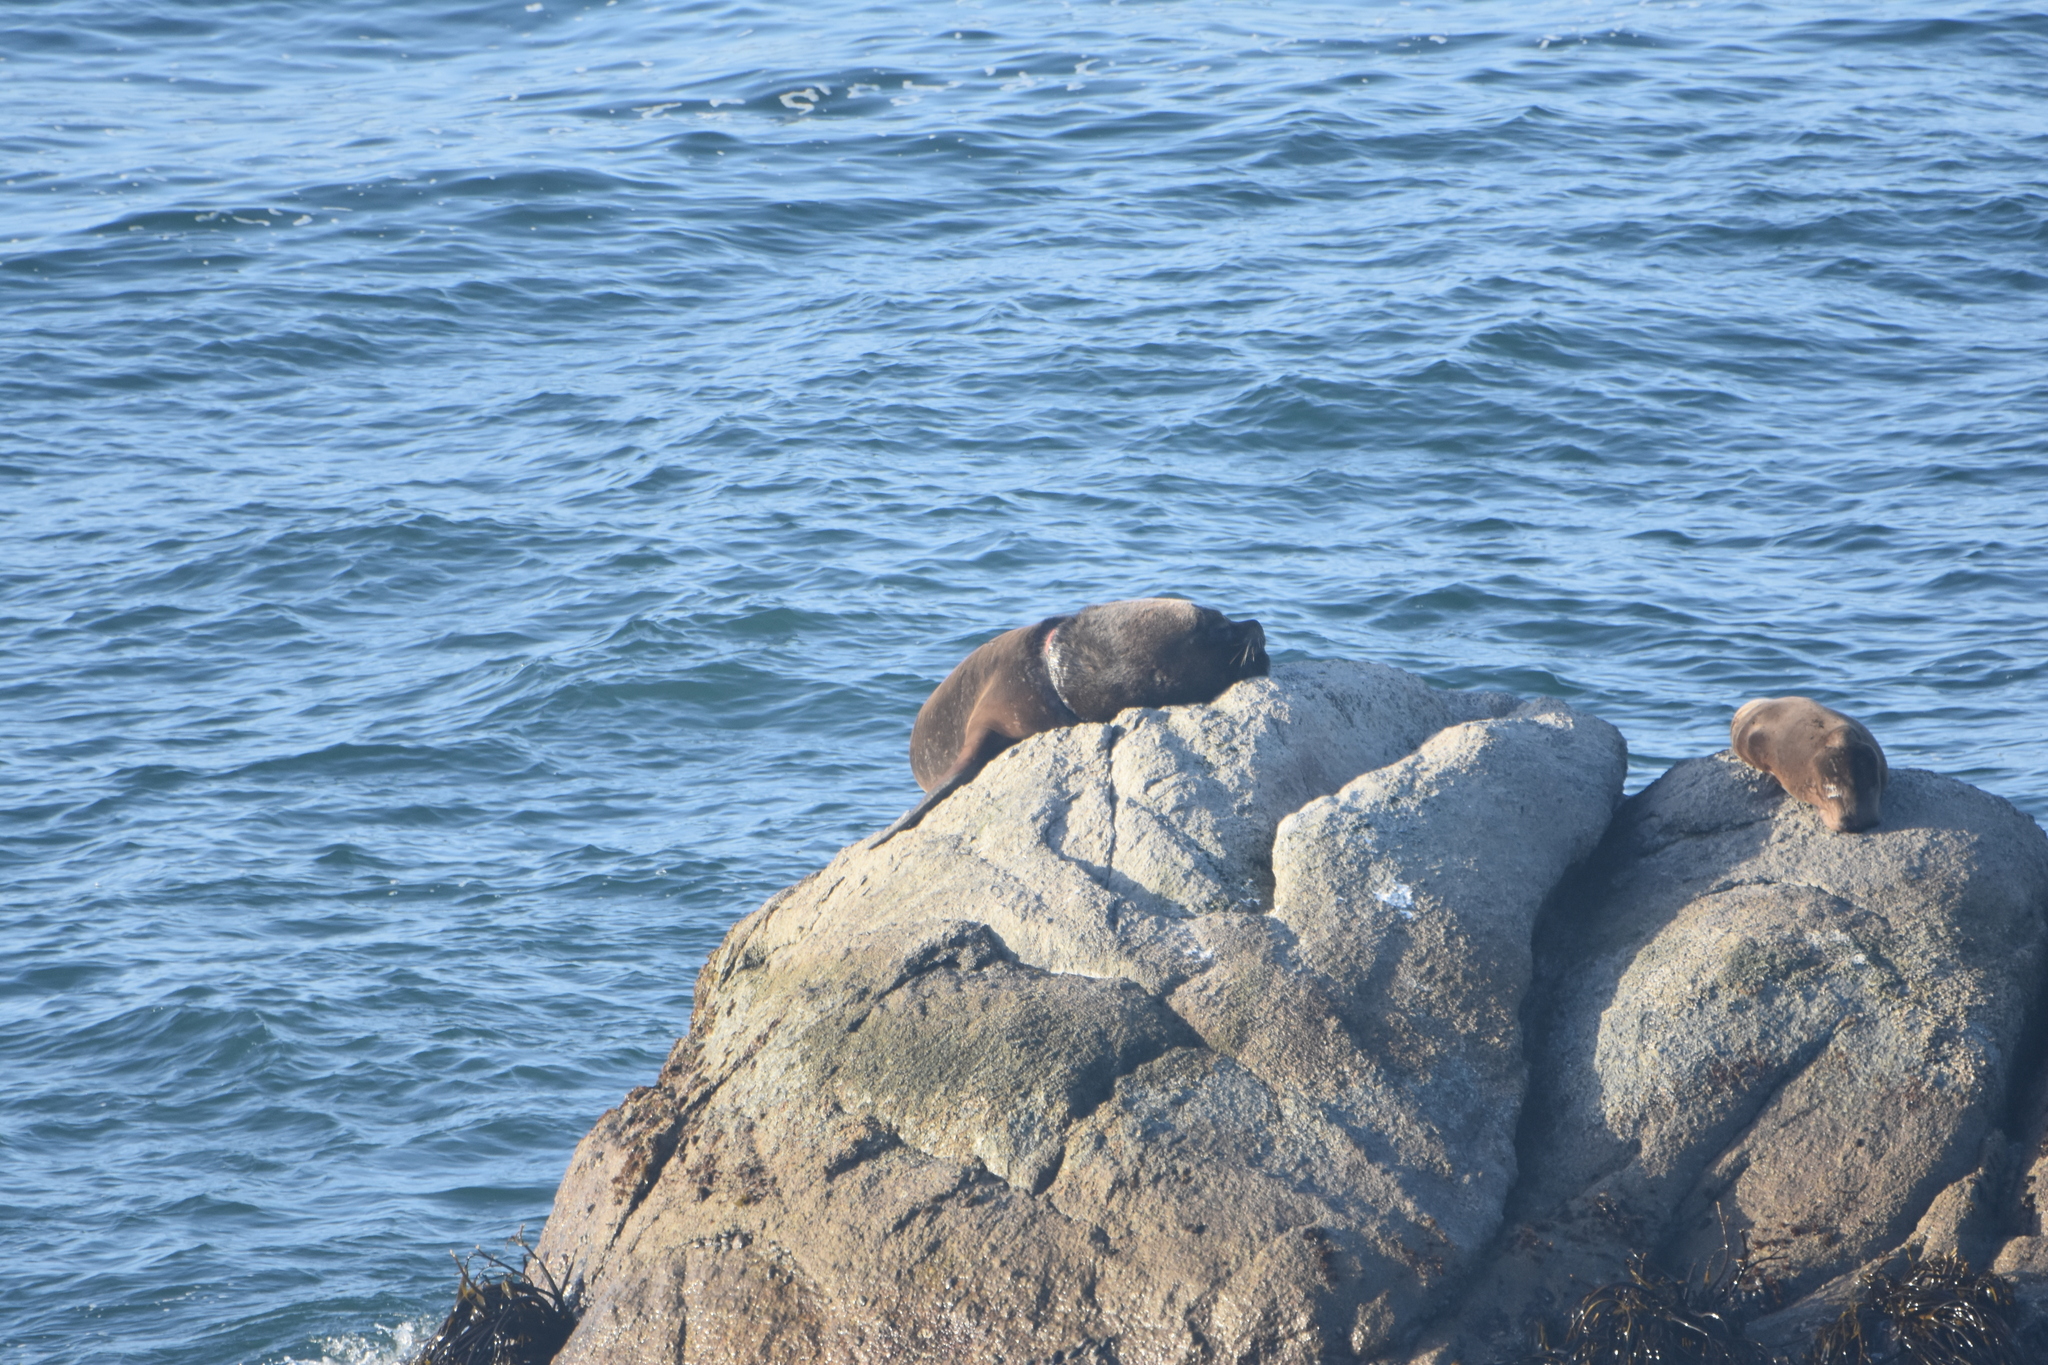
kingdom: Animalia
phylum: Chordata
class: Mammalia
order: Carnivora
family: Otariidae
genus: Otaria
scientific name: Otaria byronia
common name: South american sea lion
